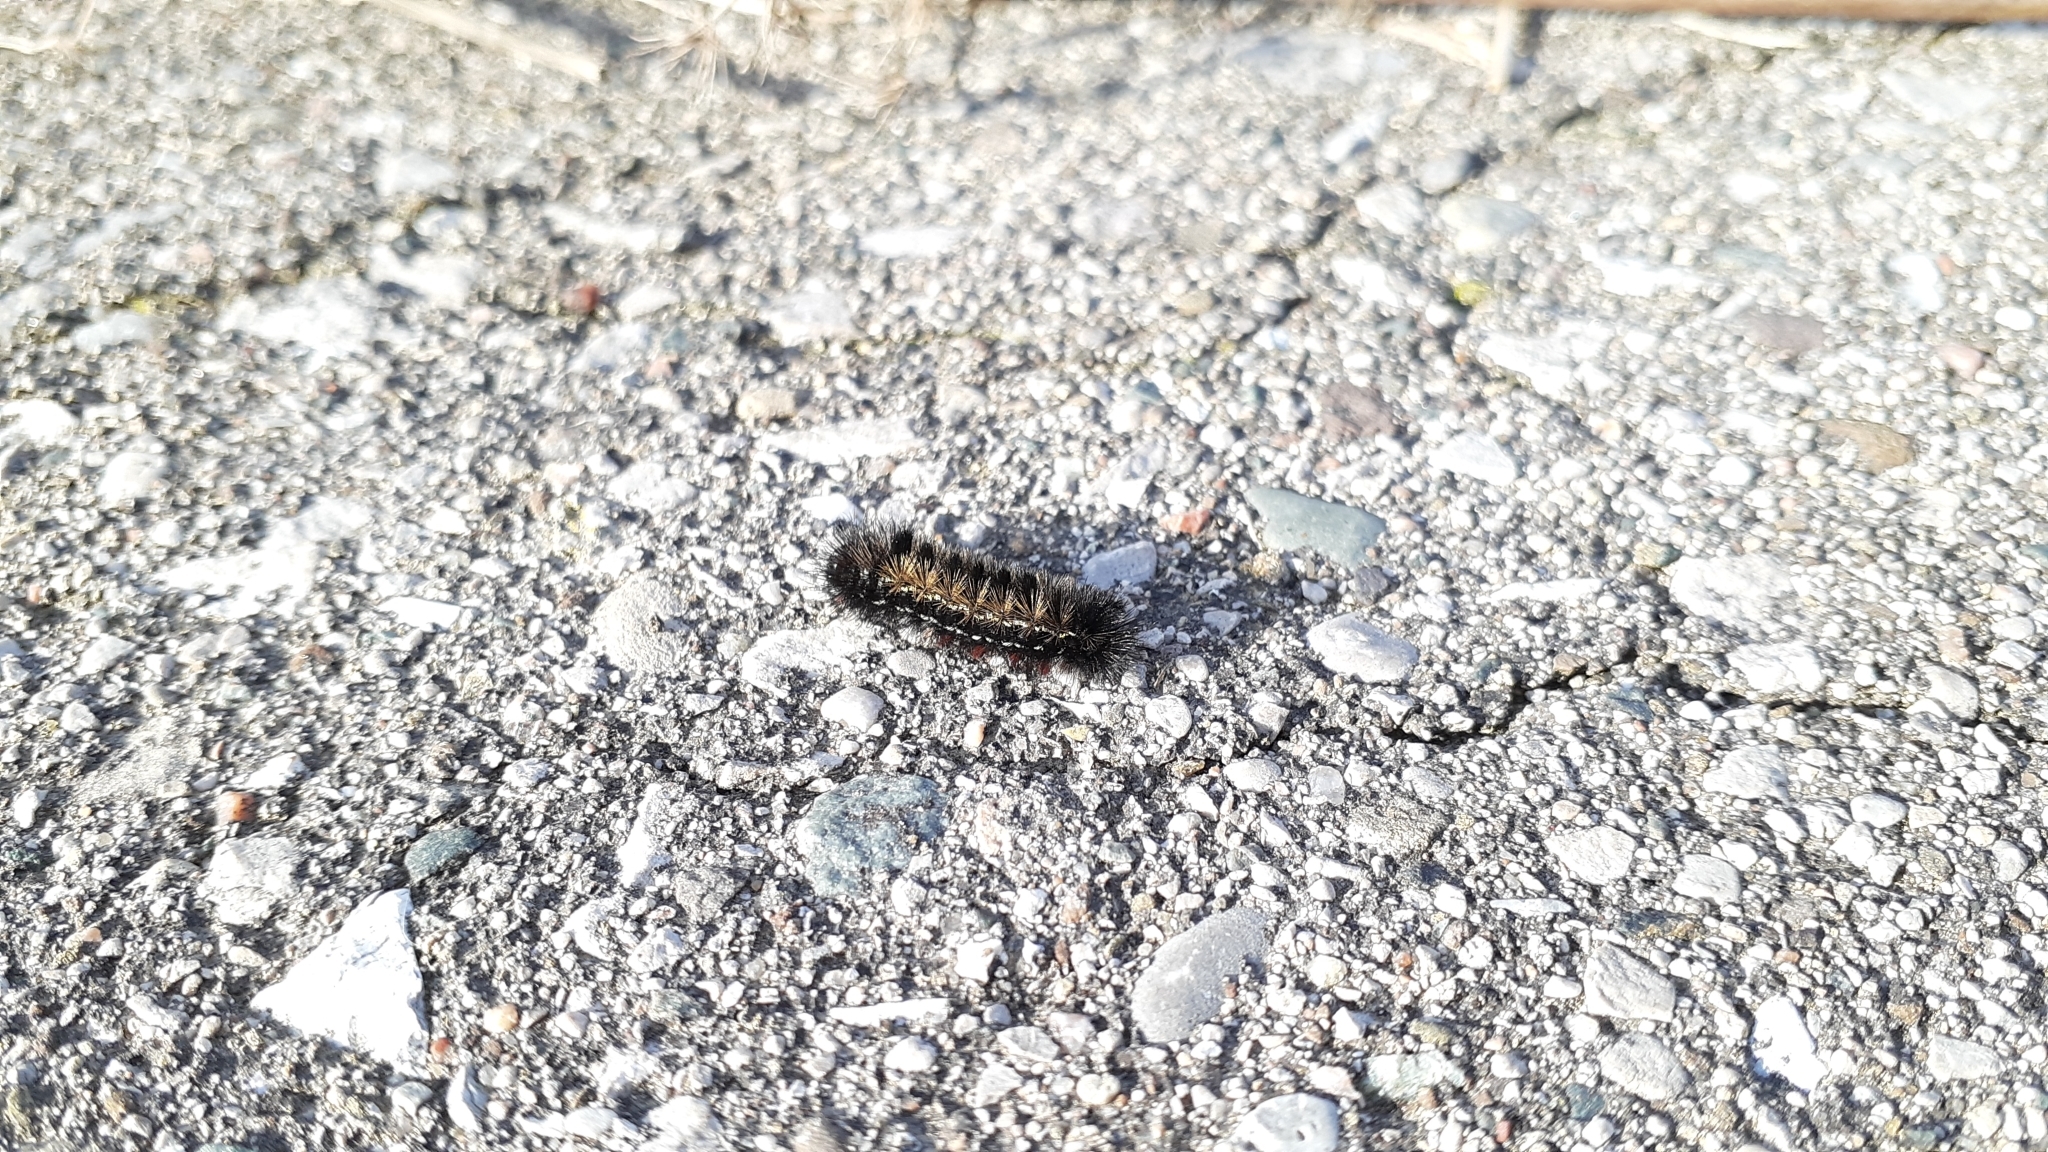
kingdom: Animalia
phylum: Arthropoda
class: Insecta
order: Lepidoptera
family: Erebidae
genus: Ctenucha
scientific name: Ctenucha virginica
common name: Virginia ctenucha moth
